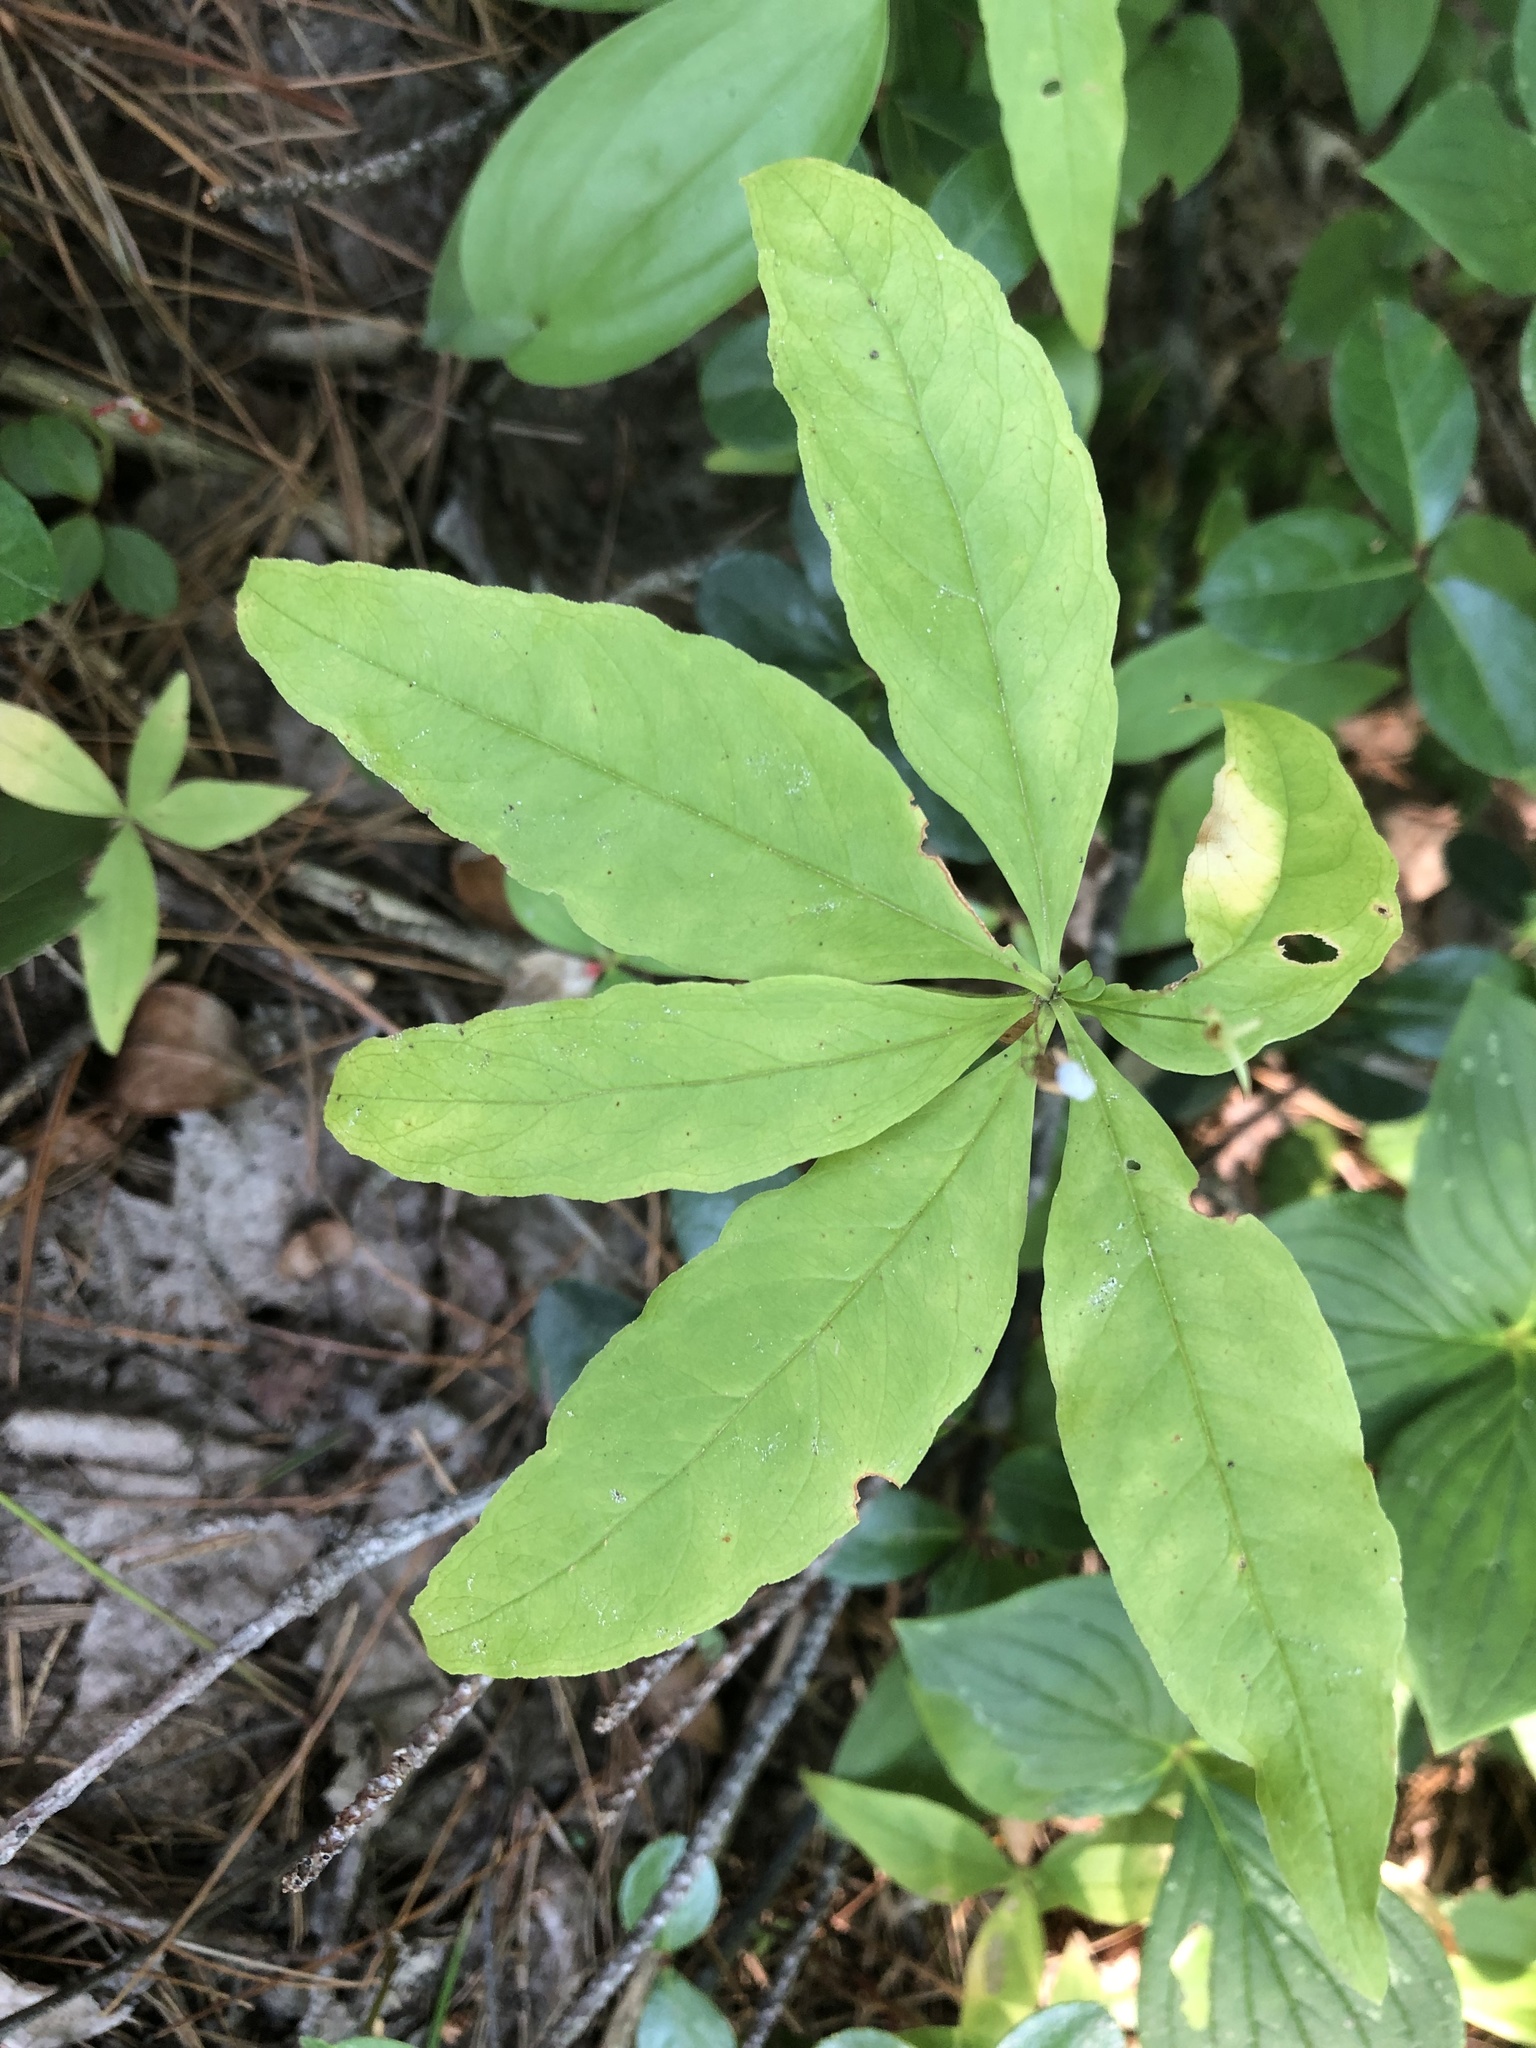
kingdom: Plantae
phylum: Tracheophyta
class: Magnoliopsida
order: Ericales
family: Primulaceae
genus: Lysimachia
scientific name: Lysimachia borealis
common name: American starflower
